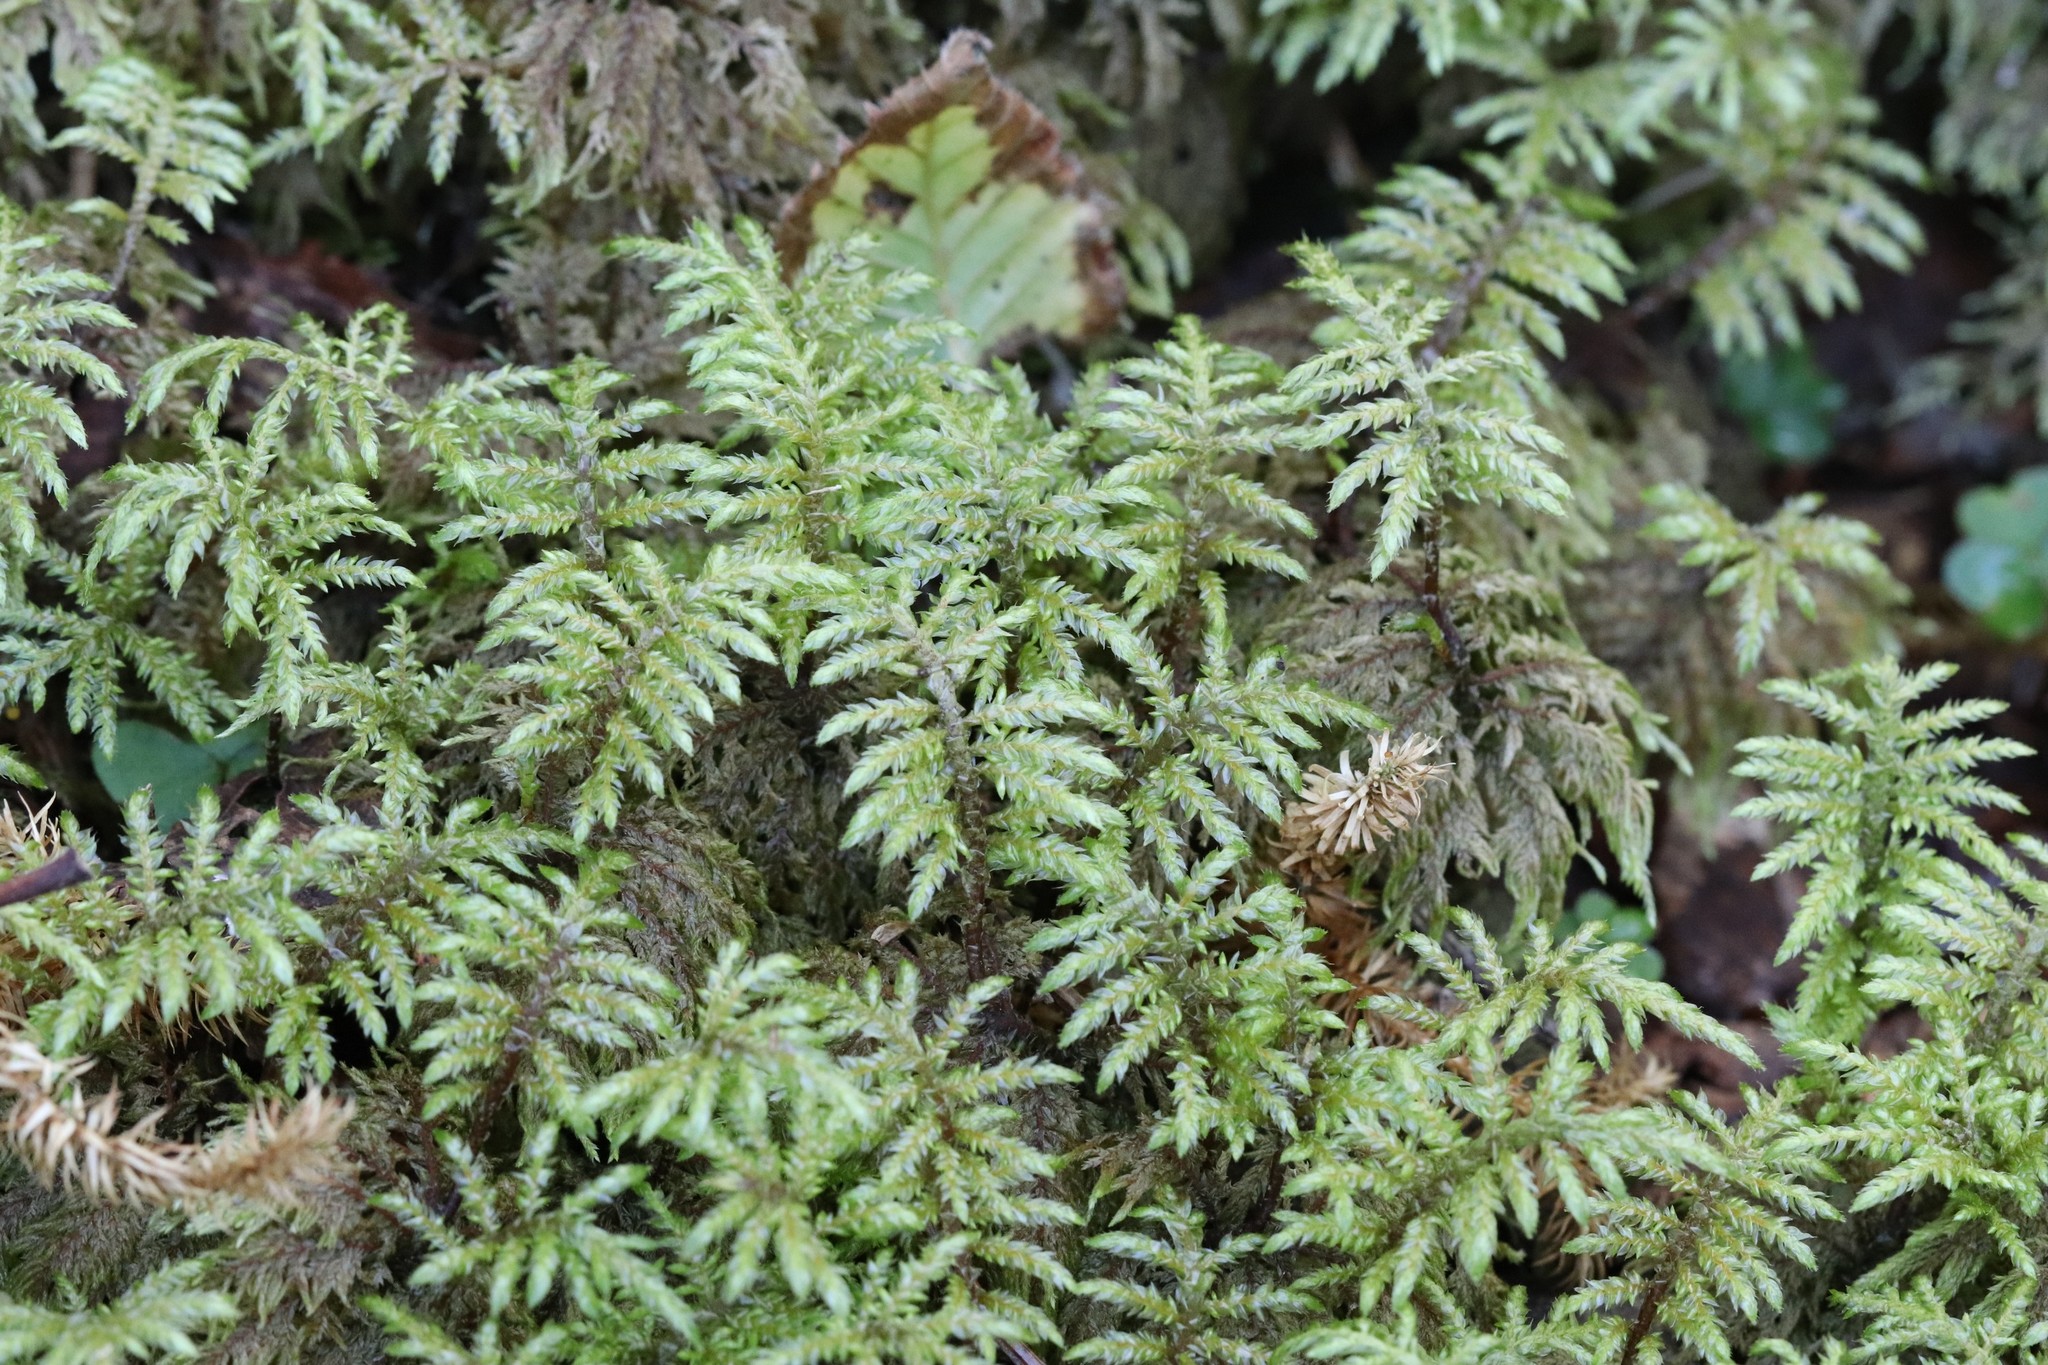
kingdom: Plantae
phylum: Bryophyta
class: Bryopsida
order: Hypnales
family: Hylocomiaceae
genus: Hylocomium
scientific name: Hylocomium splendens
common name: Stairstep moss
